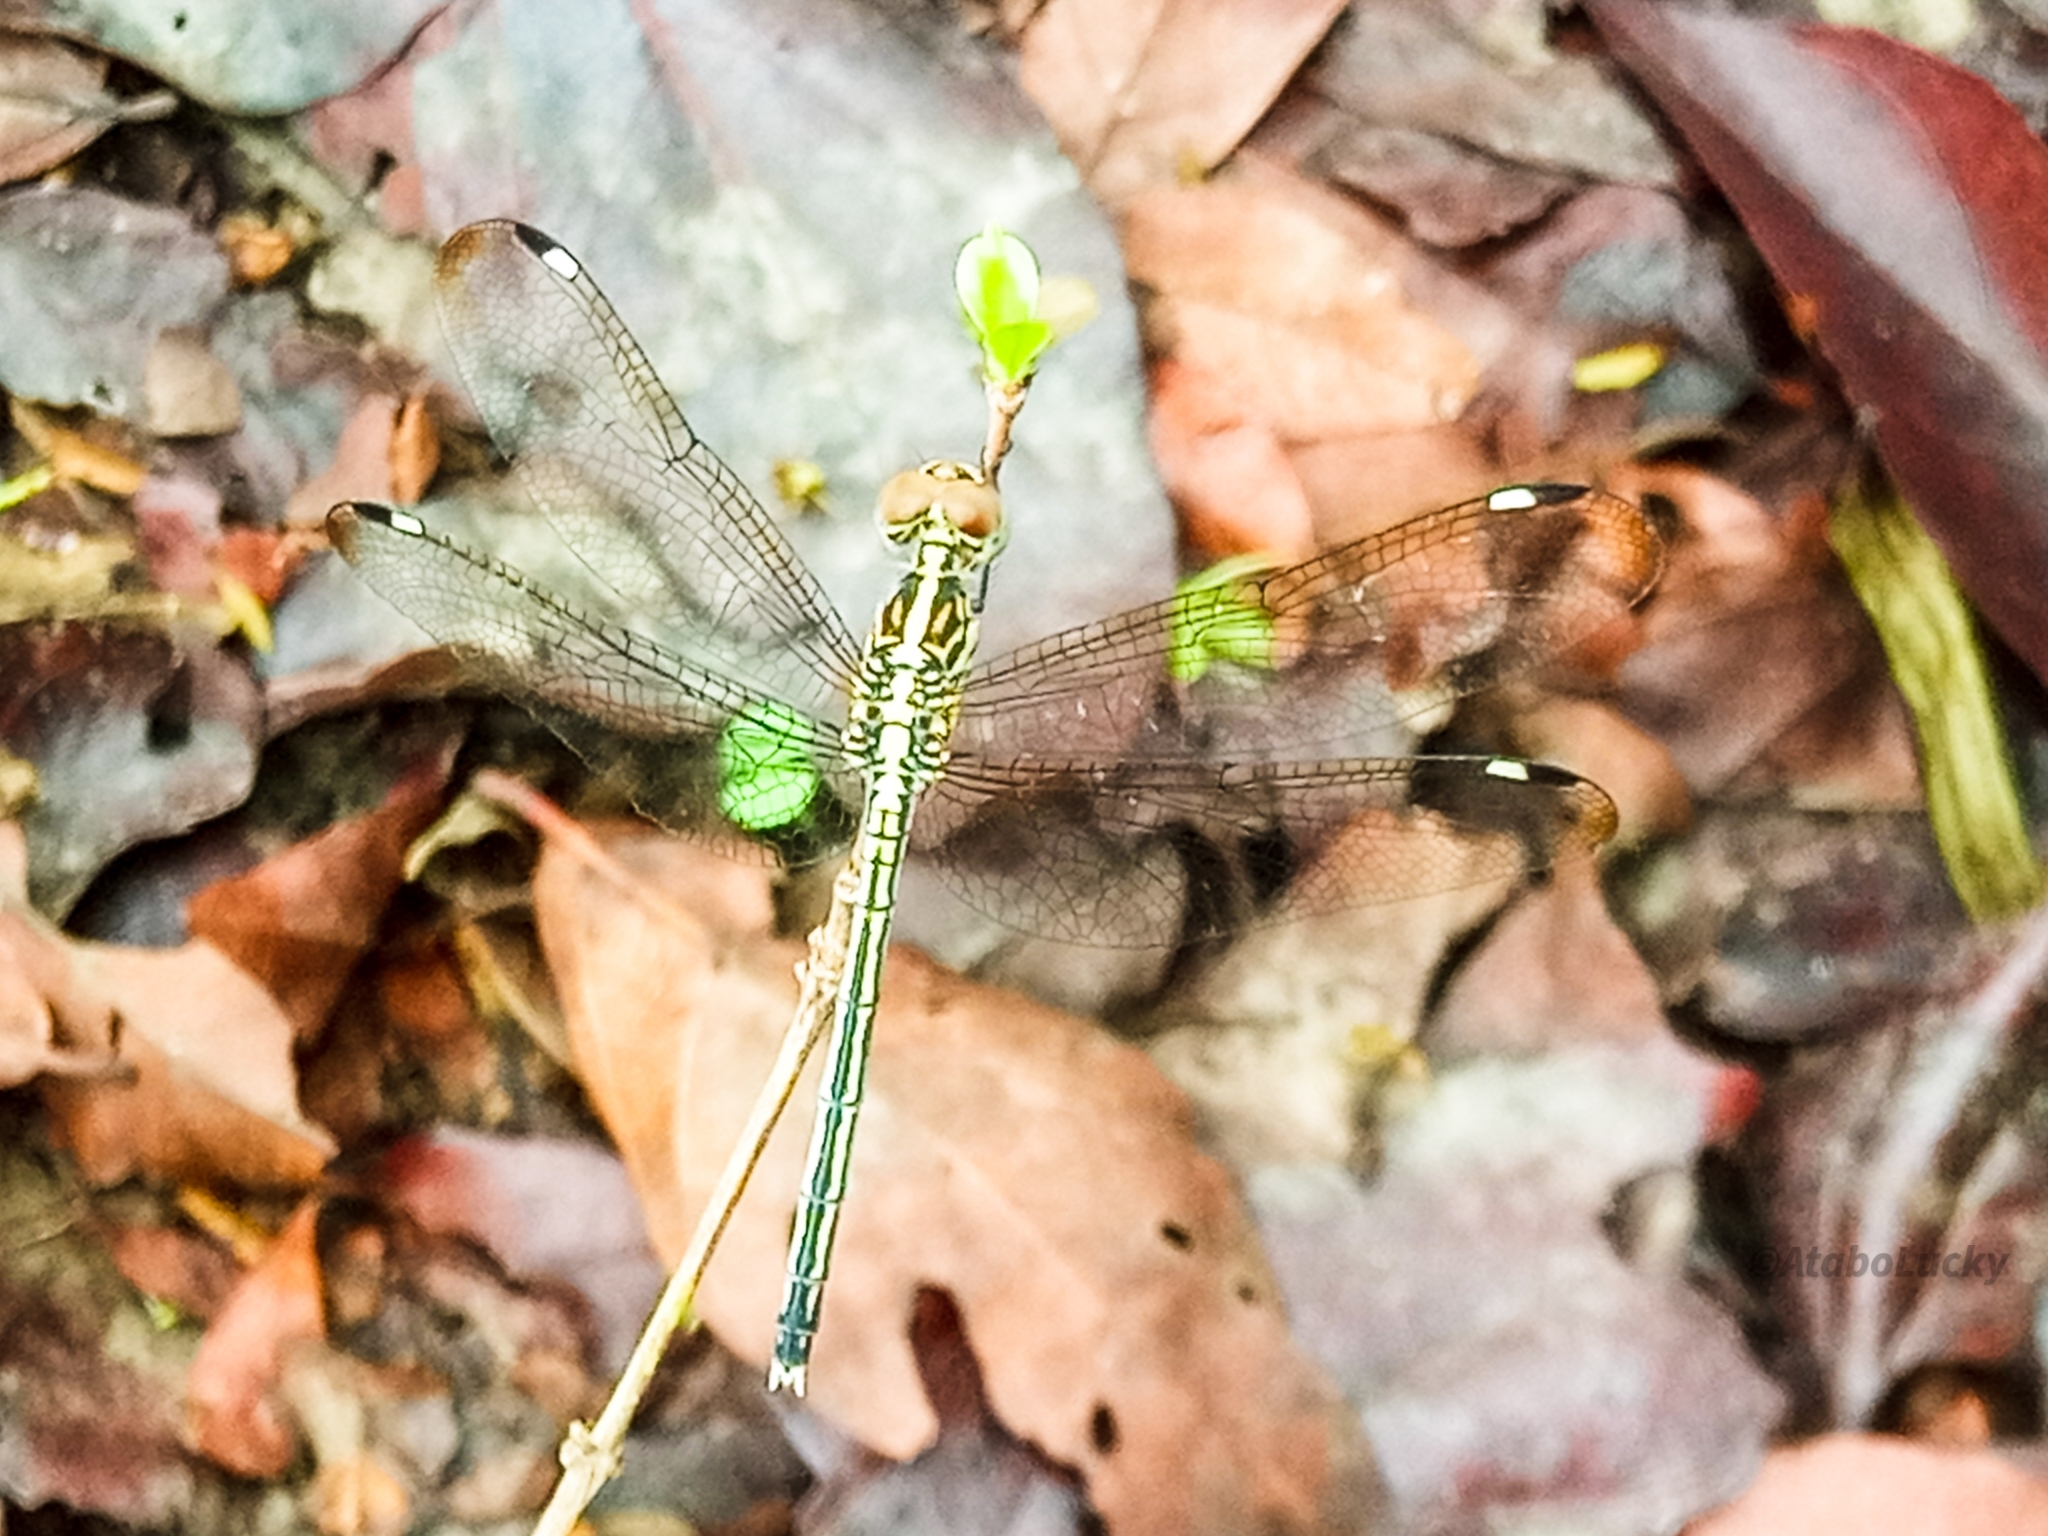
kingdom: Animalia
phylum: Arthropoda
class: Insecta
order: Odonata
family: Libellulidae
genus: Hemistigma
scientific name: Hemistigma albipunctum
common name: African pied-spot
